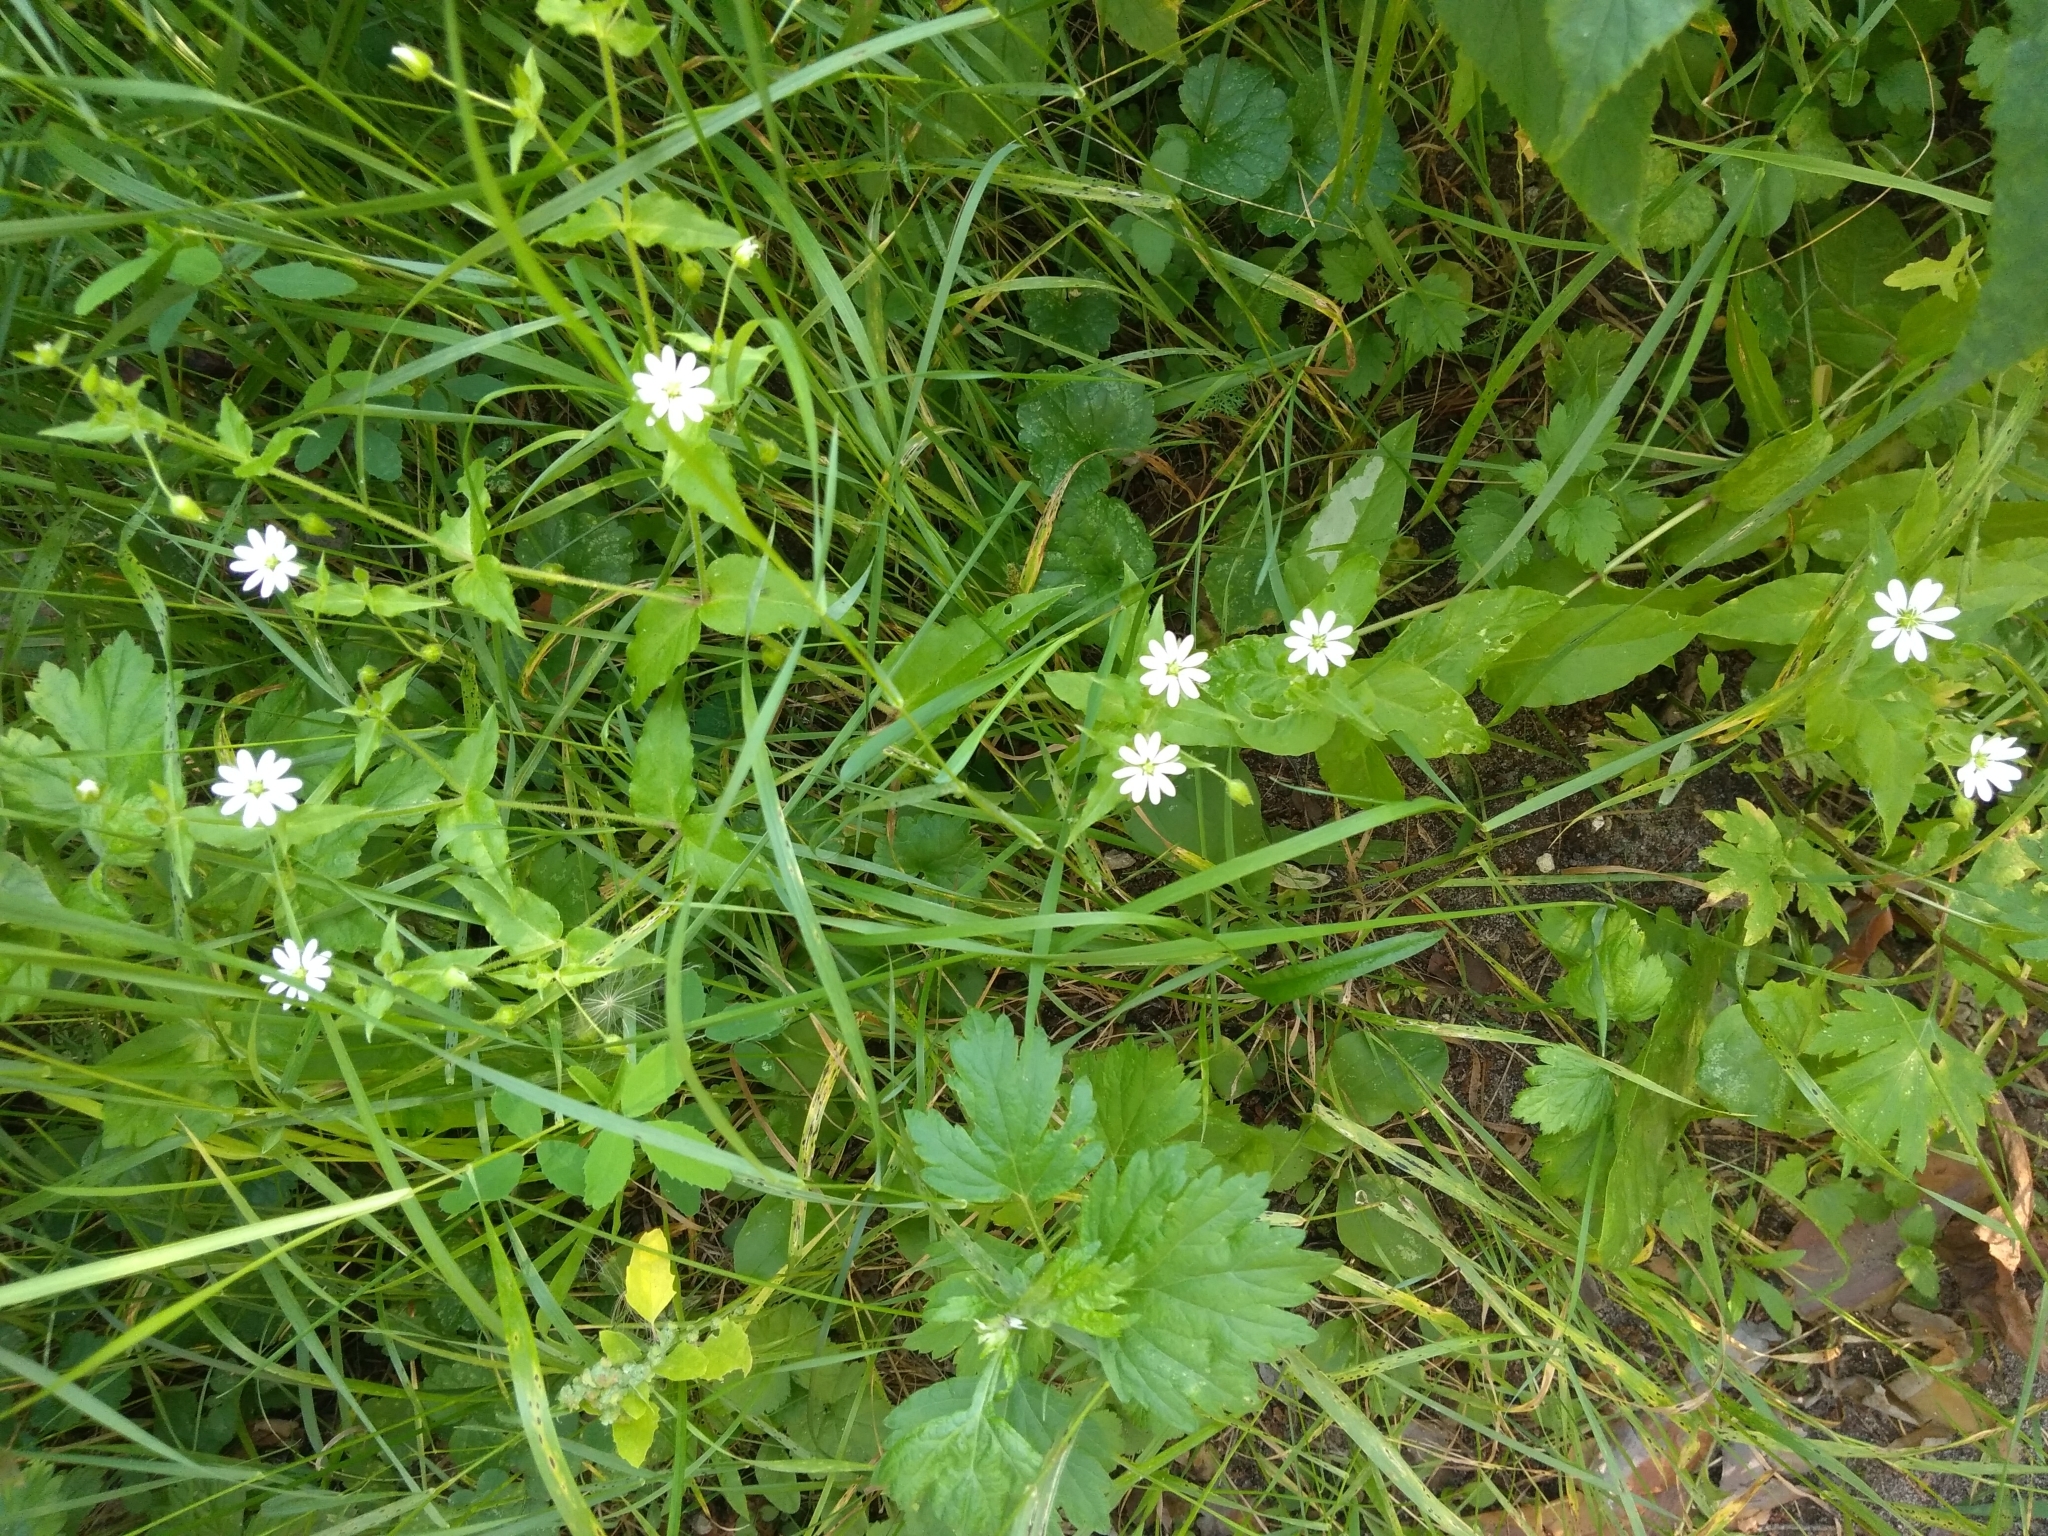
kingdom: Plantae
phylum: Tracheophyta
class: Magnoliopsida
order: Caryophyllales
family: Caryophyllaceae
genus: Stellaria
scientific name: Stellaria aquatica
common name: Water chickweed
